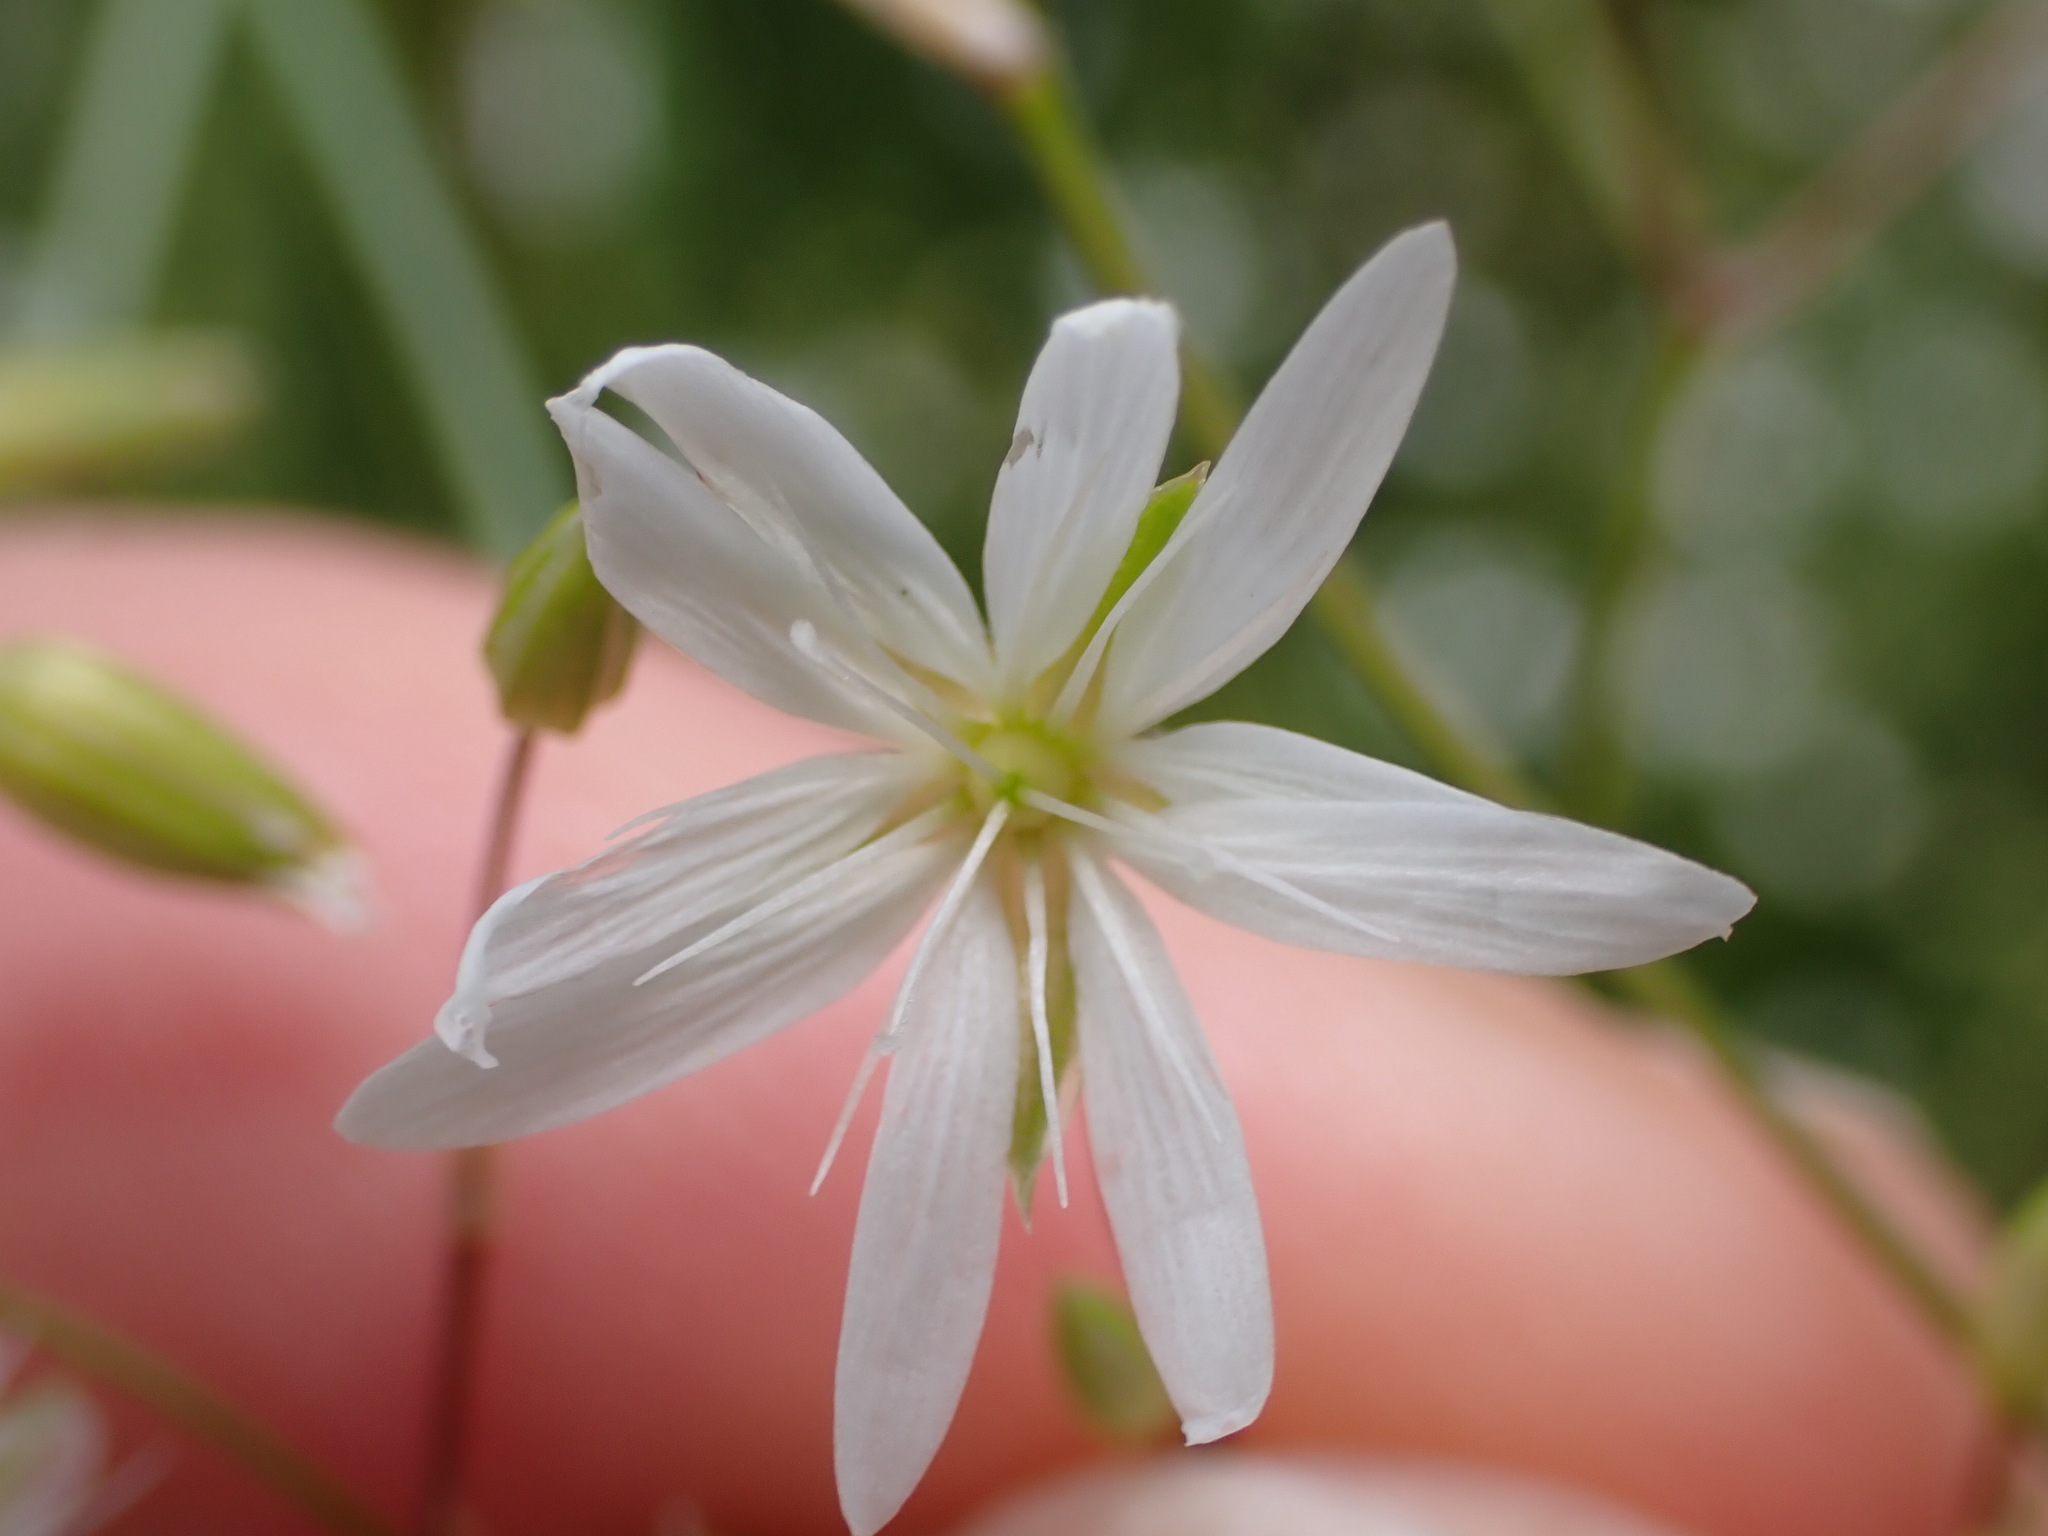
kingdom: Plantae
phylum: Tracheophyta
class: Magnoliopsida
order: Caryophyllales
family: Caryophyllaceae
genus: Stellaria
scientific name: Stellaria graminea
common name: Grass-like starwort
